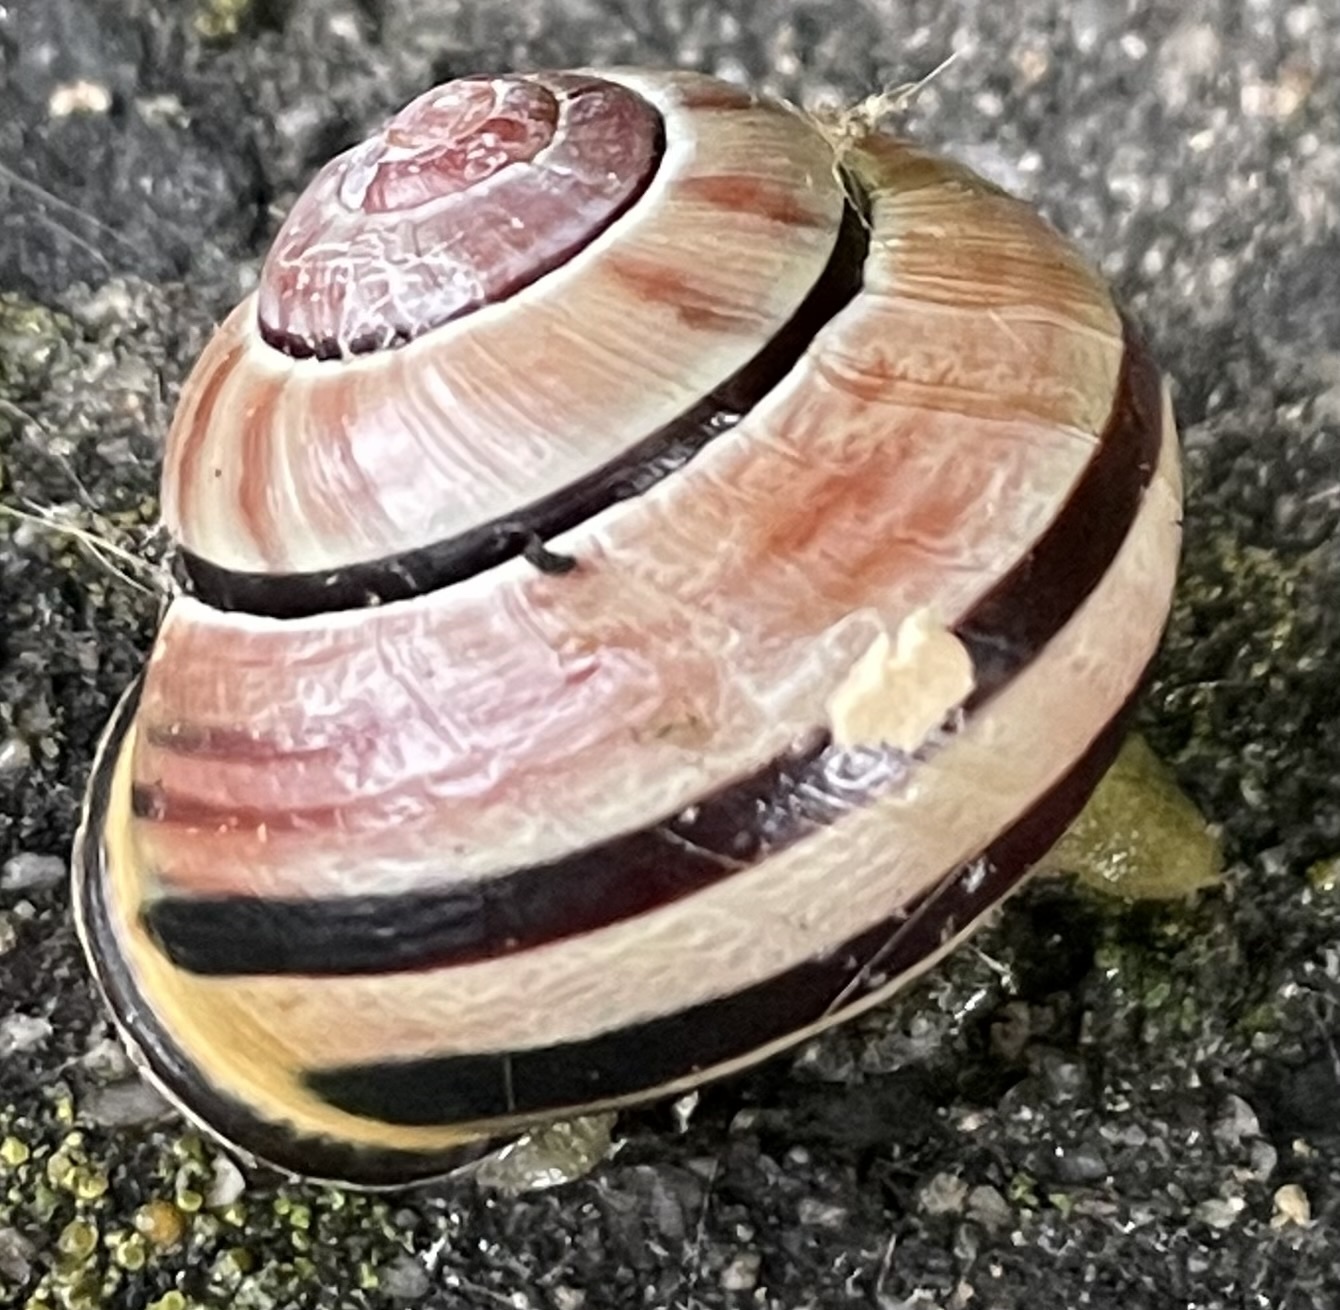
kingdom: Animalia
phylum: Mollusca
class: Gastropoda
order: Stylommatophora
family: Helicidae
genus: Cepaea
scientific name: Cepaea nemoralis
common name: Grovesnail
